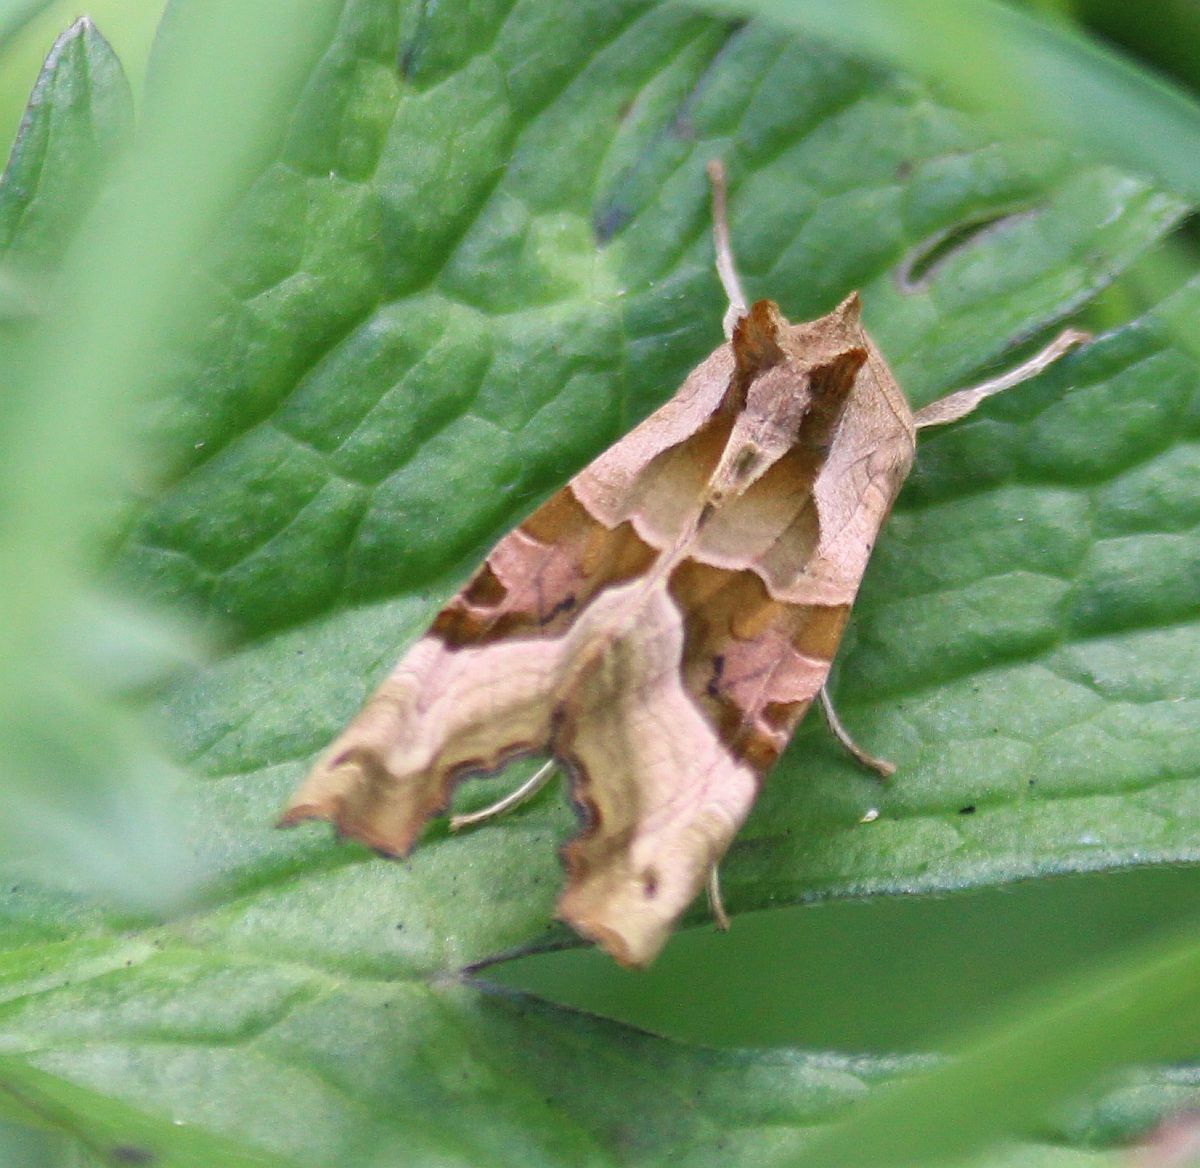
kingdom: Animalia
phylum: Arthropoda
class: Insecta
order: Lepidoptera
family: Noctuidae
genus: Phlogophora
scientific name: Phlogophora meticulosa
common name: Angle shades
